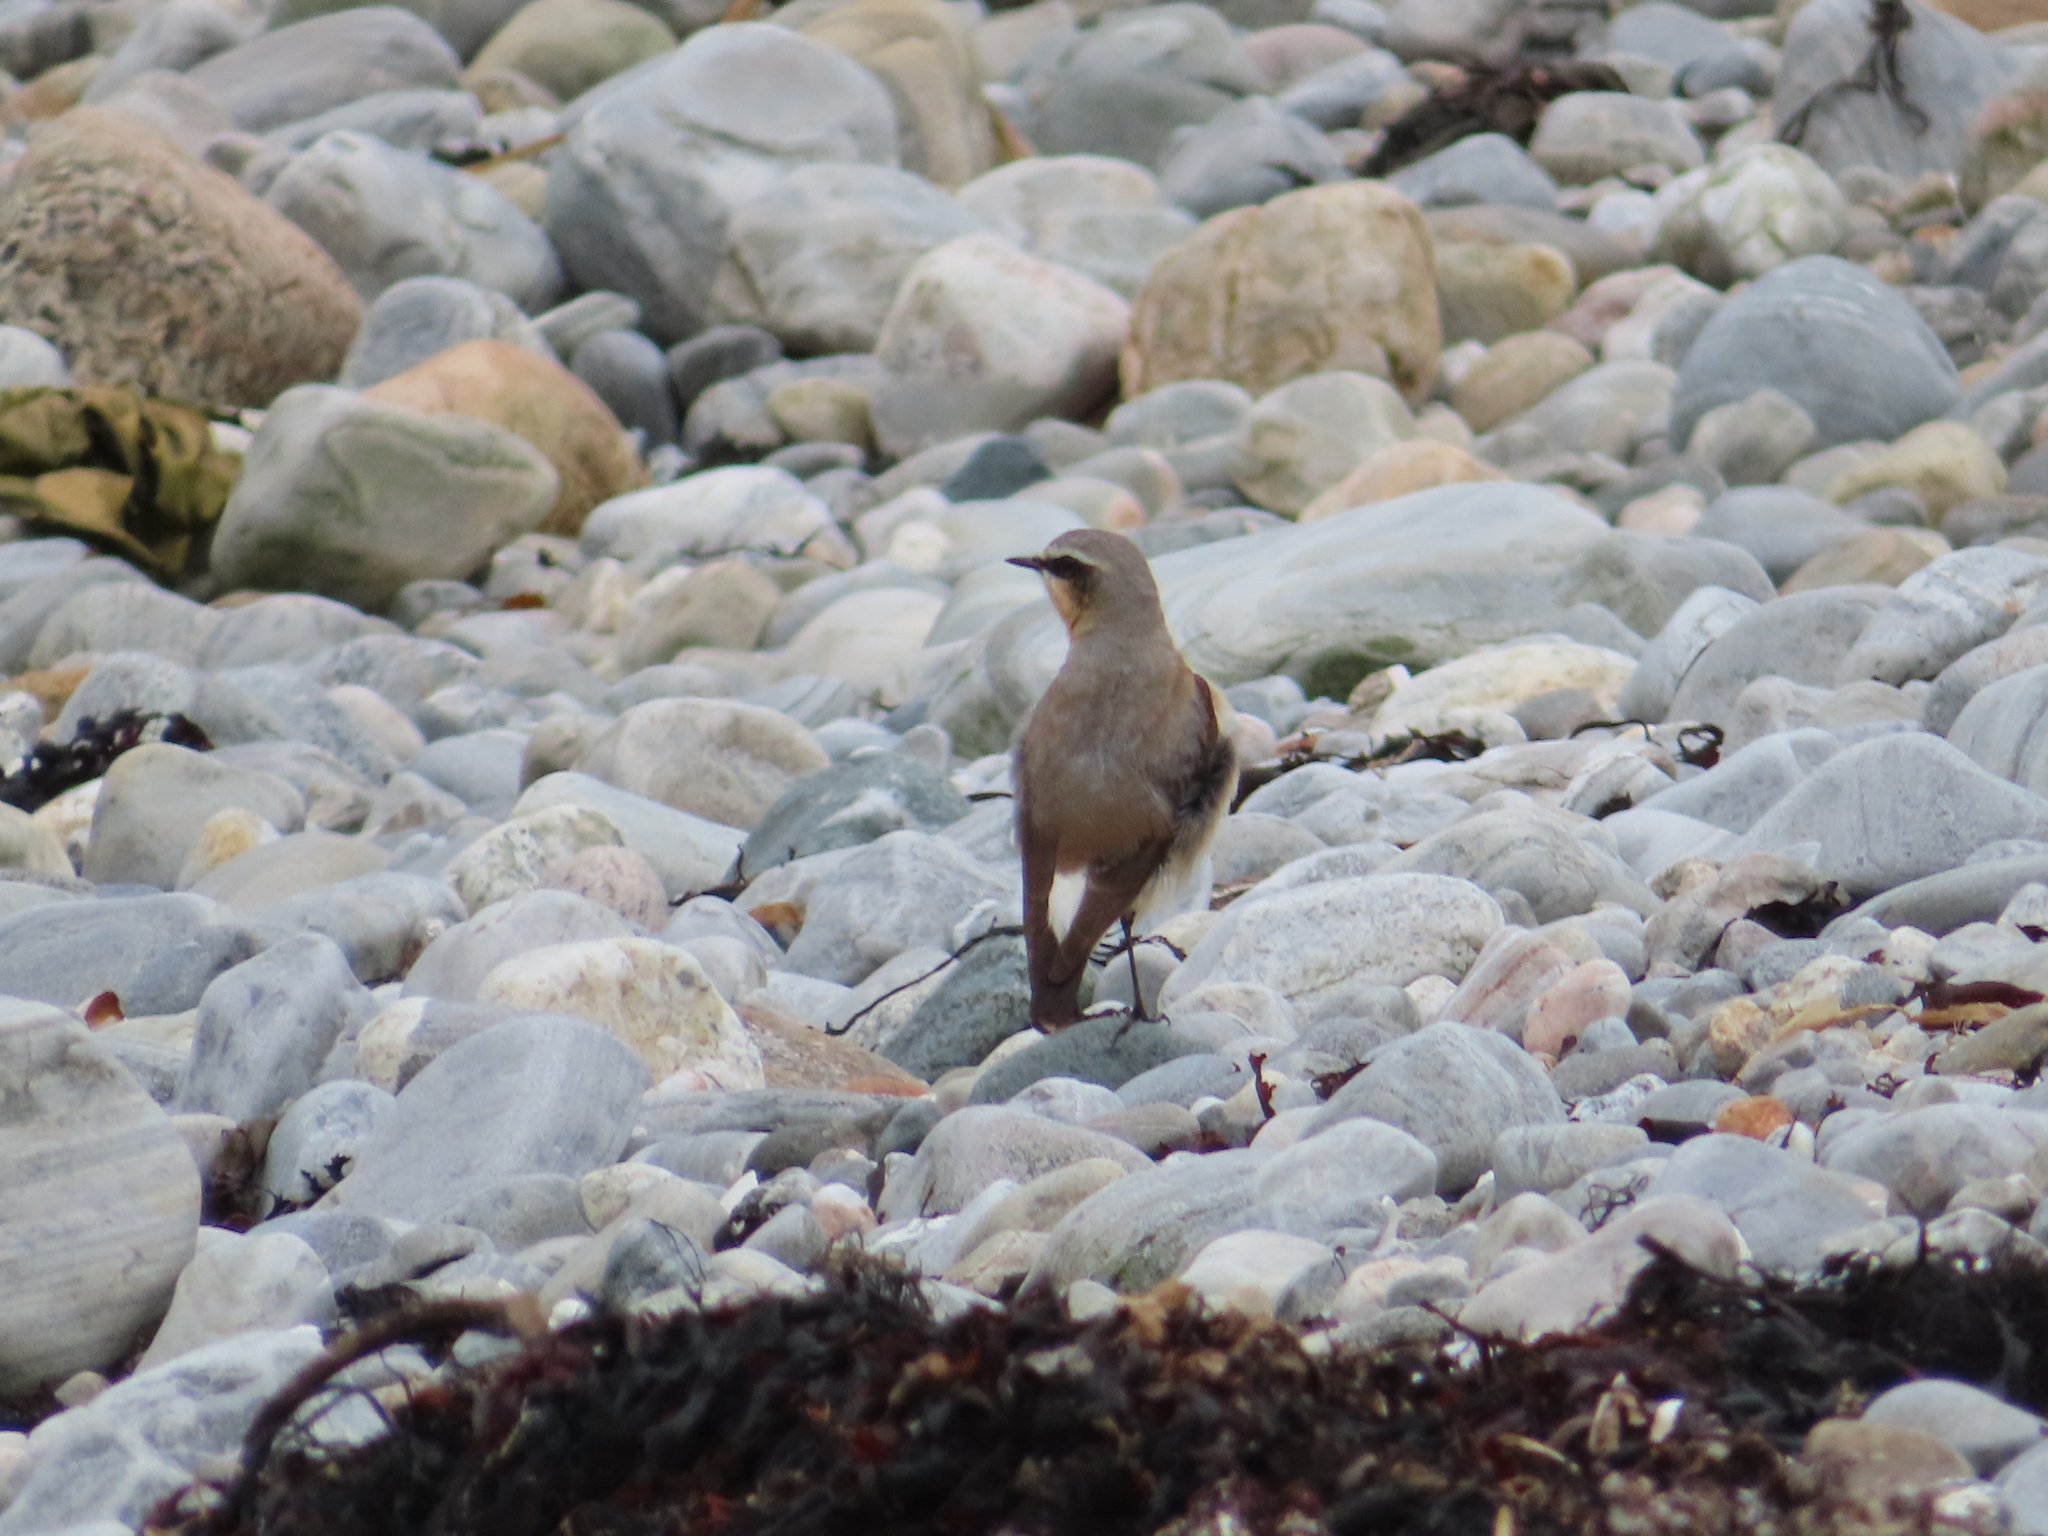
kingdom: Animalia
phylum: Chordata
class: Aves
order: Passeriformes
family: Muscicapidae
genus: Oenanthe
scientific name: Oenanthe oenanthe
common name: Northern wheatear
